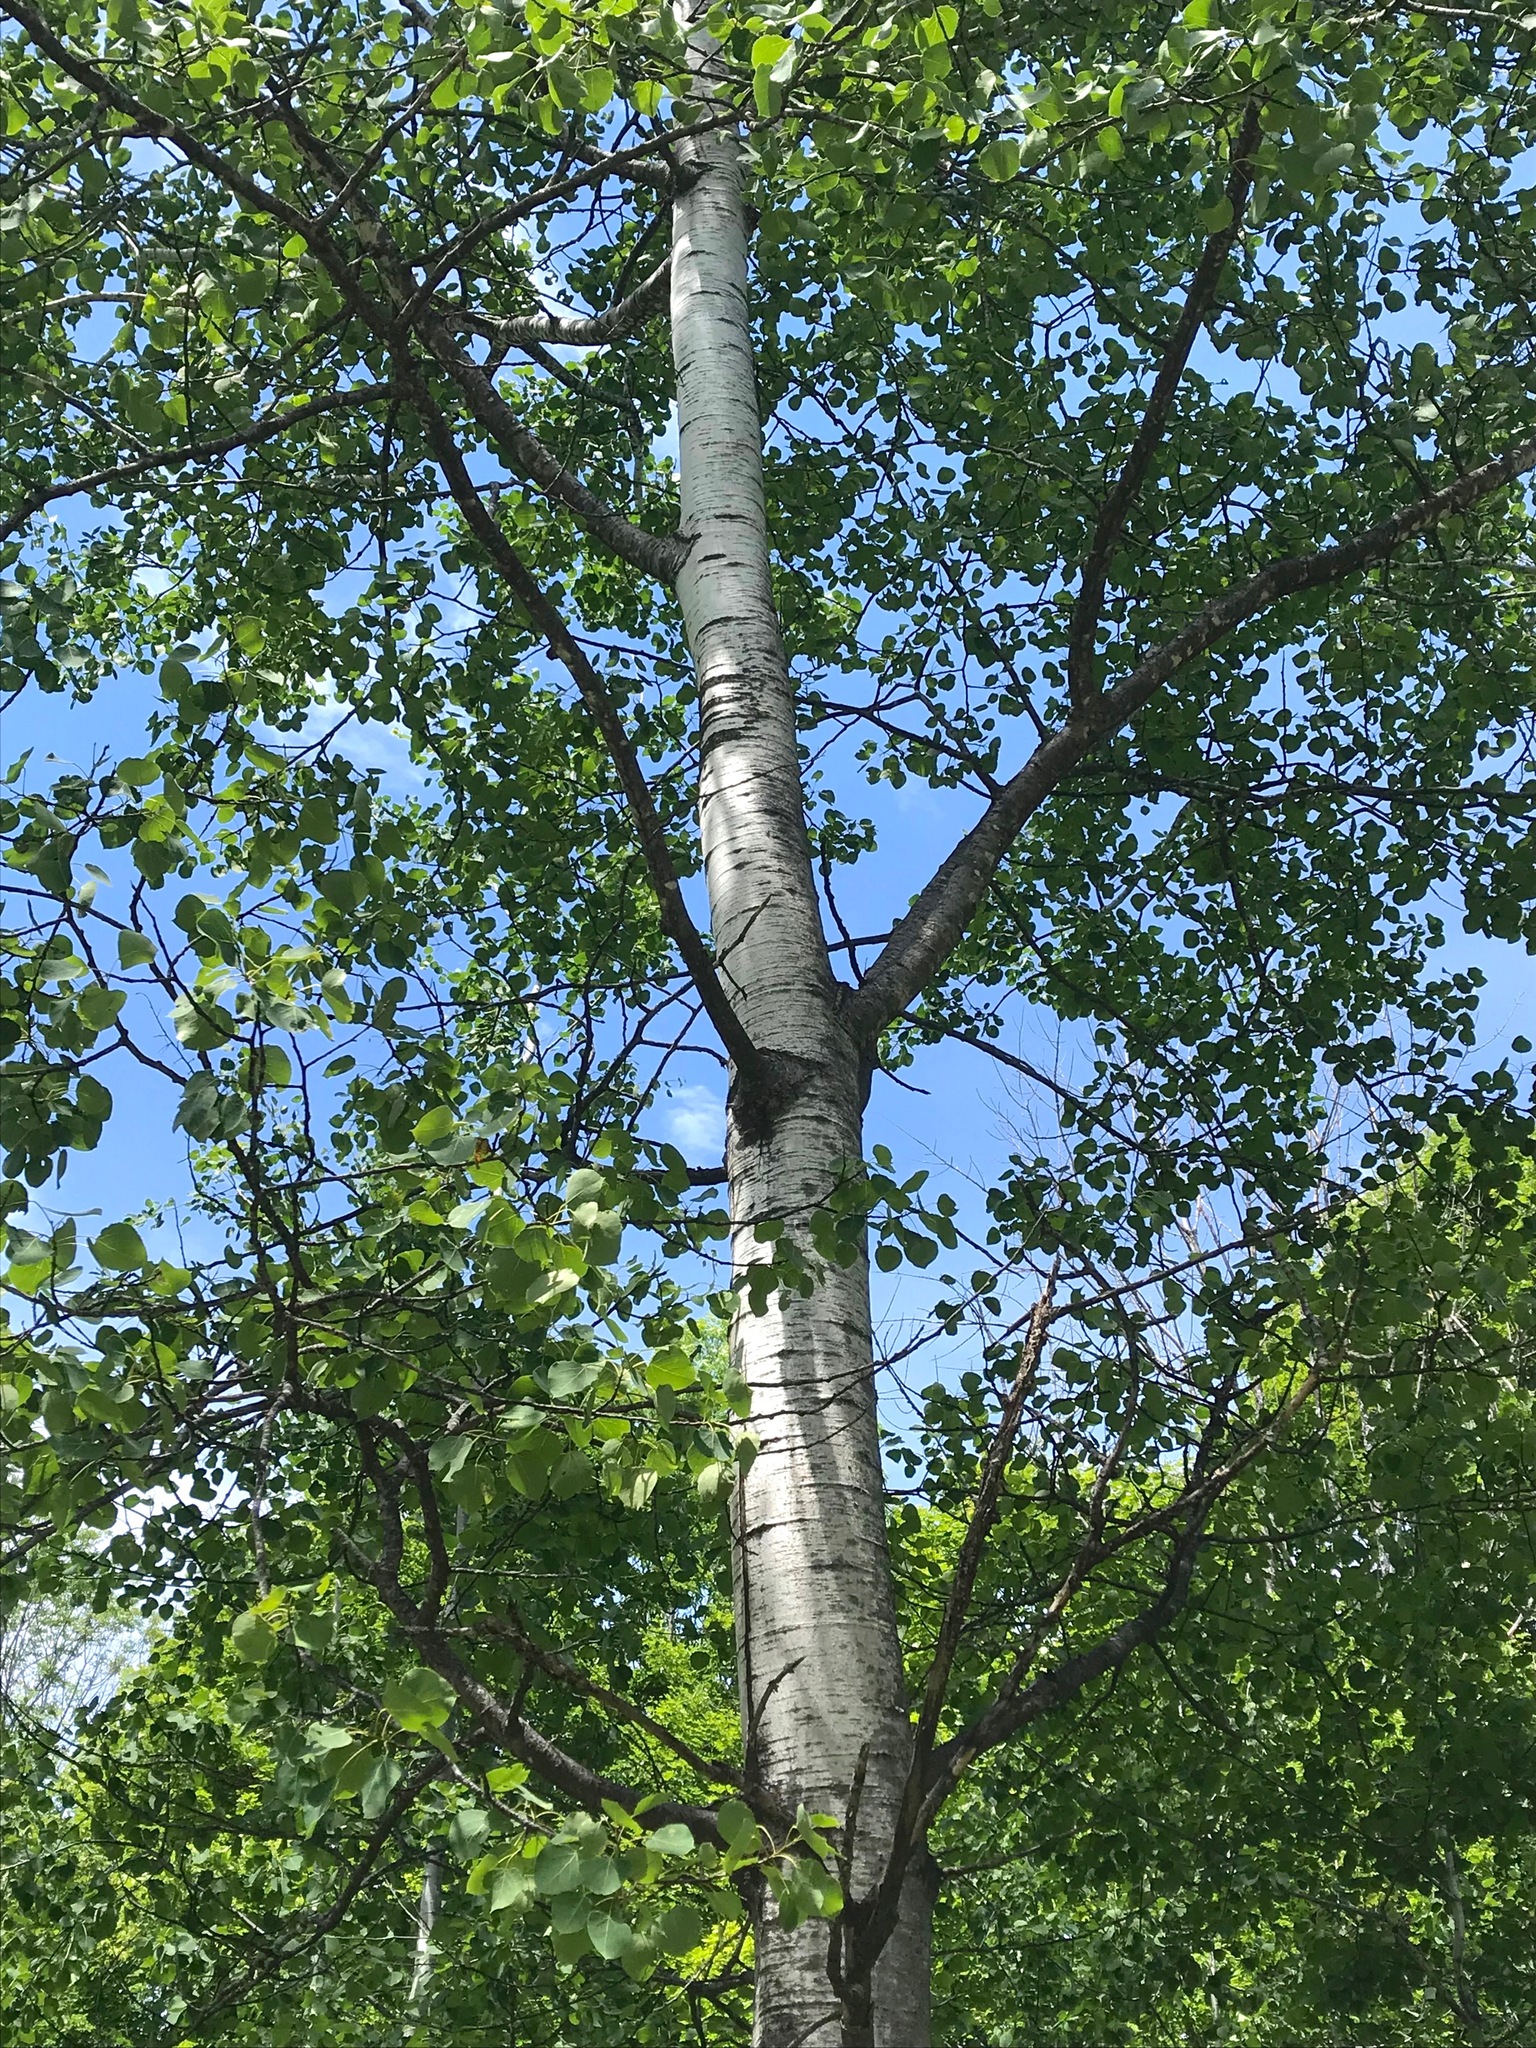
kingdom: Plantae
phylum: Tracheophyta
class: Magnoliopsida
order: Malpighiales
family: Salicaceae
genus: Populus
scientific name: Populus tremuloides
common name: Quaking aspen
